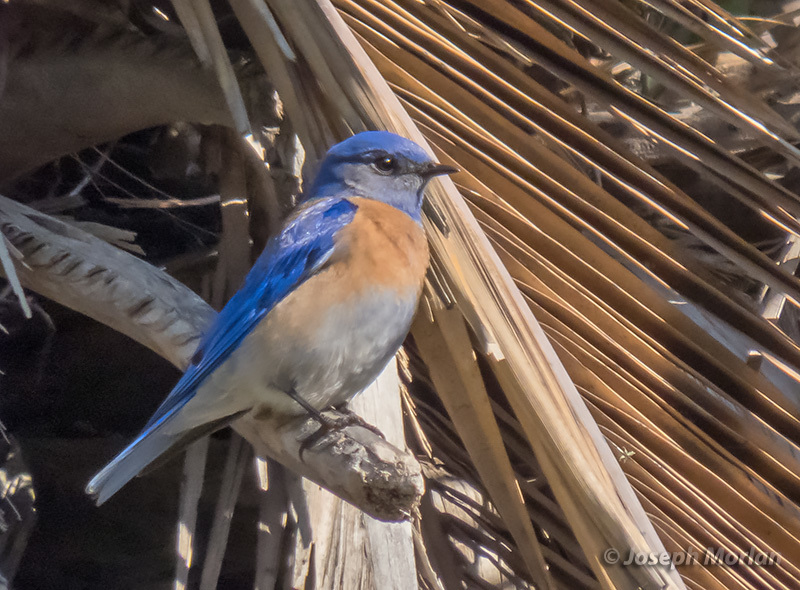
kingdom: Animalia
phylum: Chordata
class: Aves
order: Passeriformes
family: Turdidae
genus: Sialia
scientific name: Sialia mexicana
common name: Western bluebird
